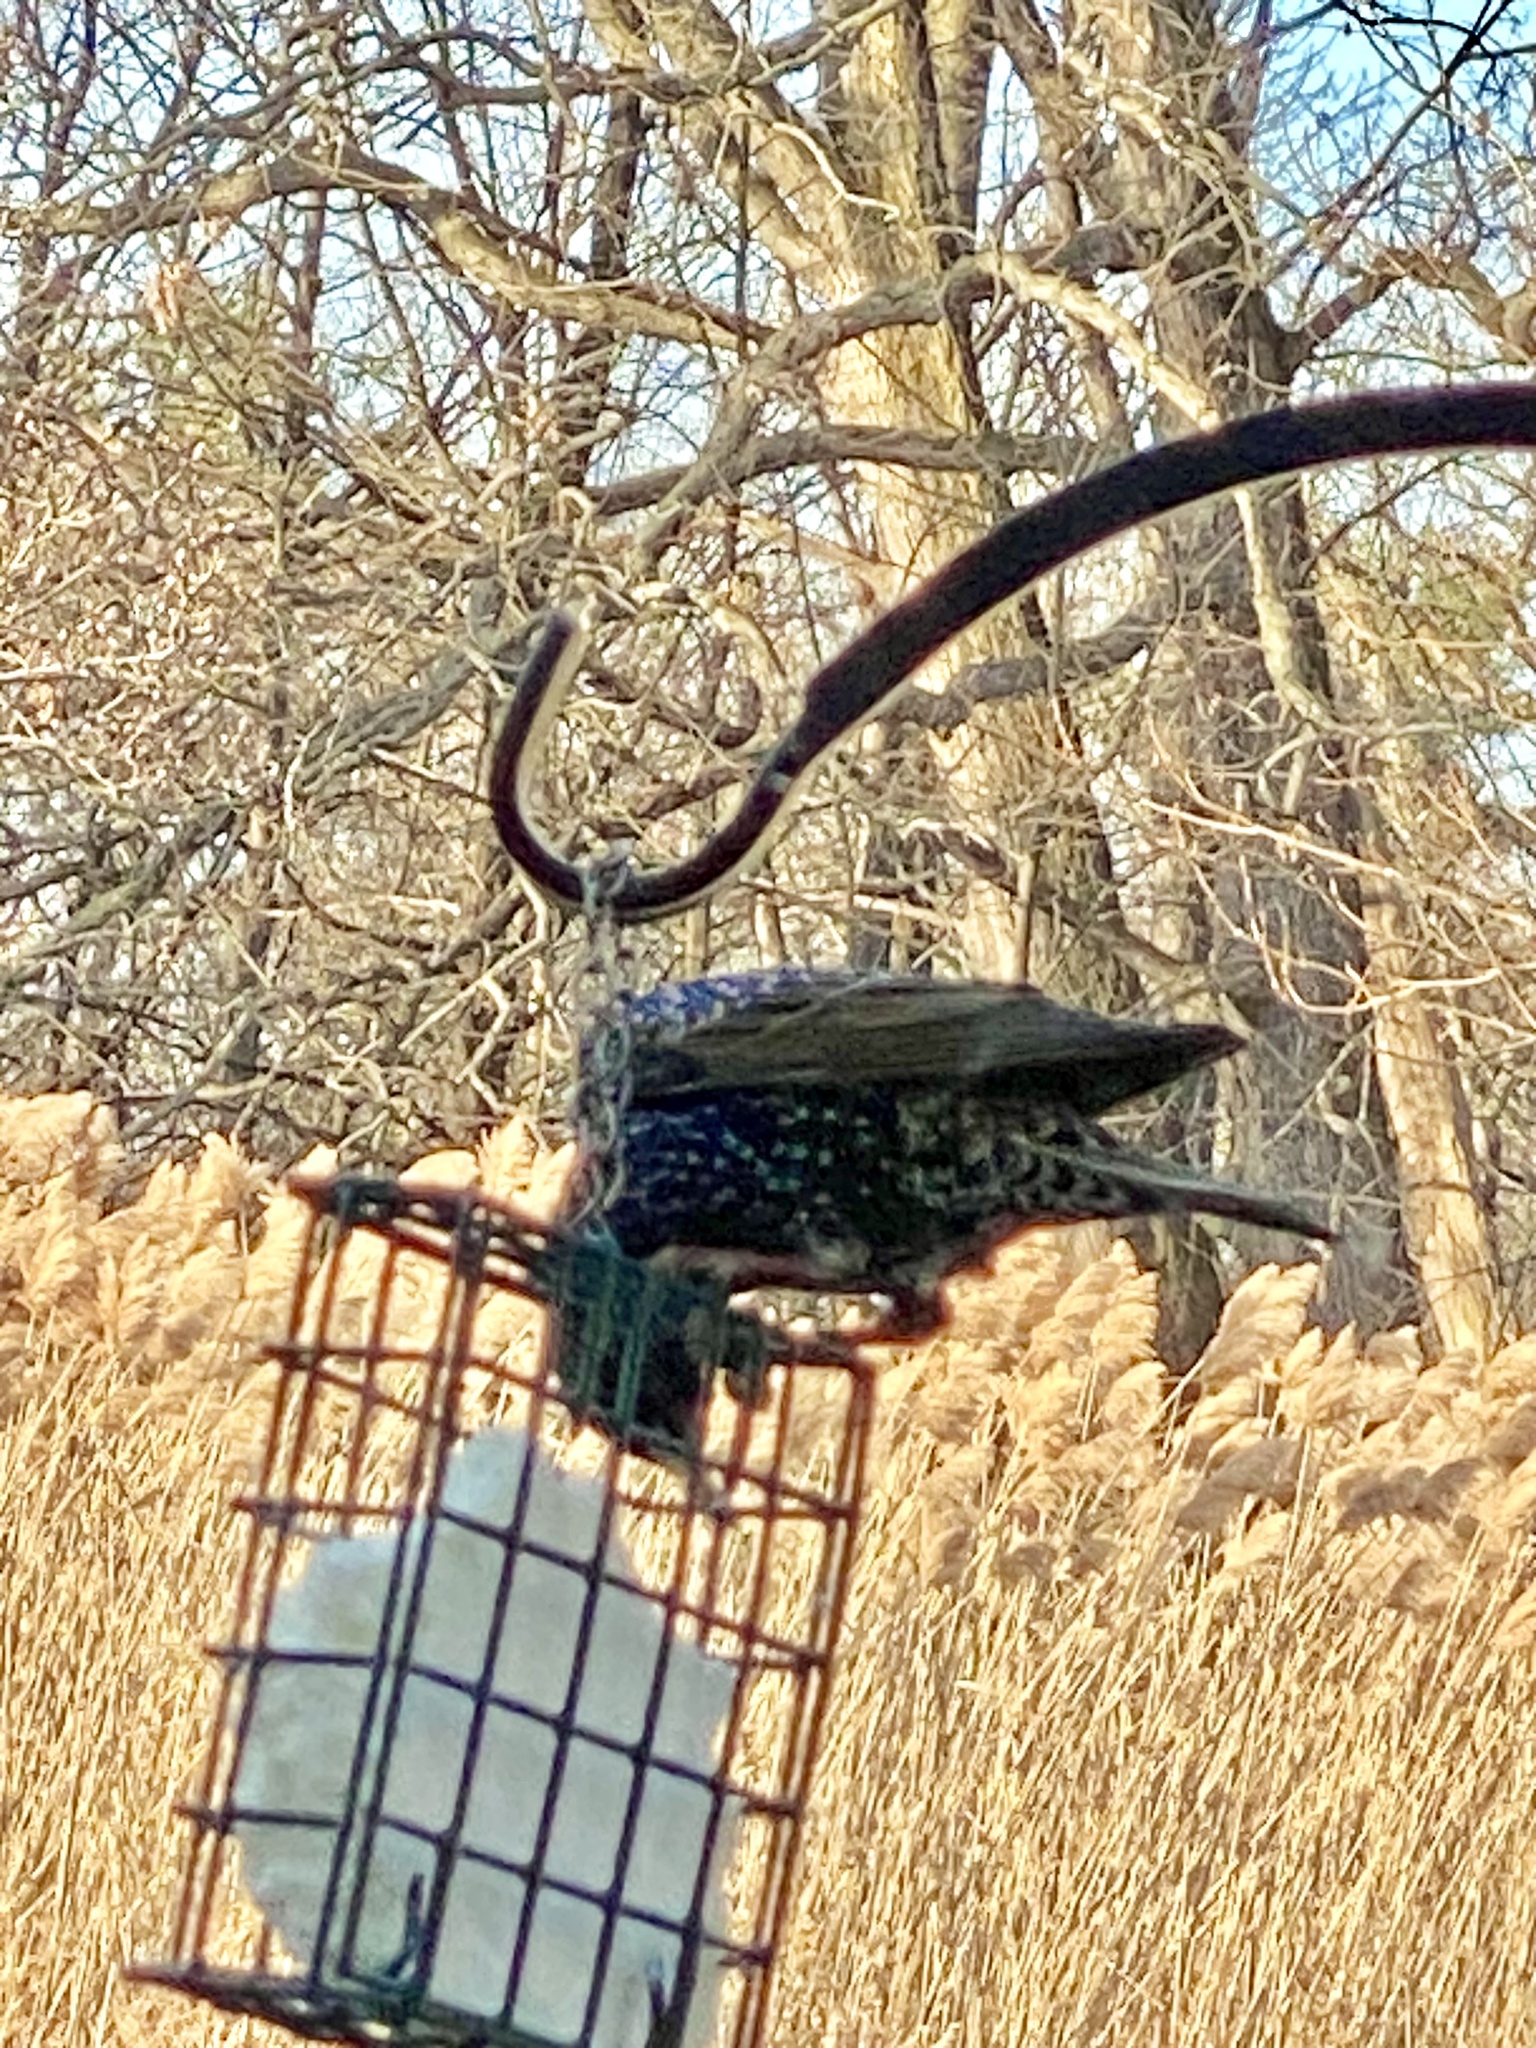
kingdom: Animalia
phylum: Chordata
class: Aves
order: Passeriformes
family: Sturnidae
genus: Sturnus
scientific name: Sturnus vulgaris
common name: Common starling
